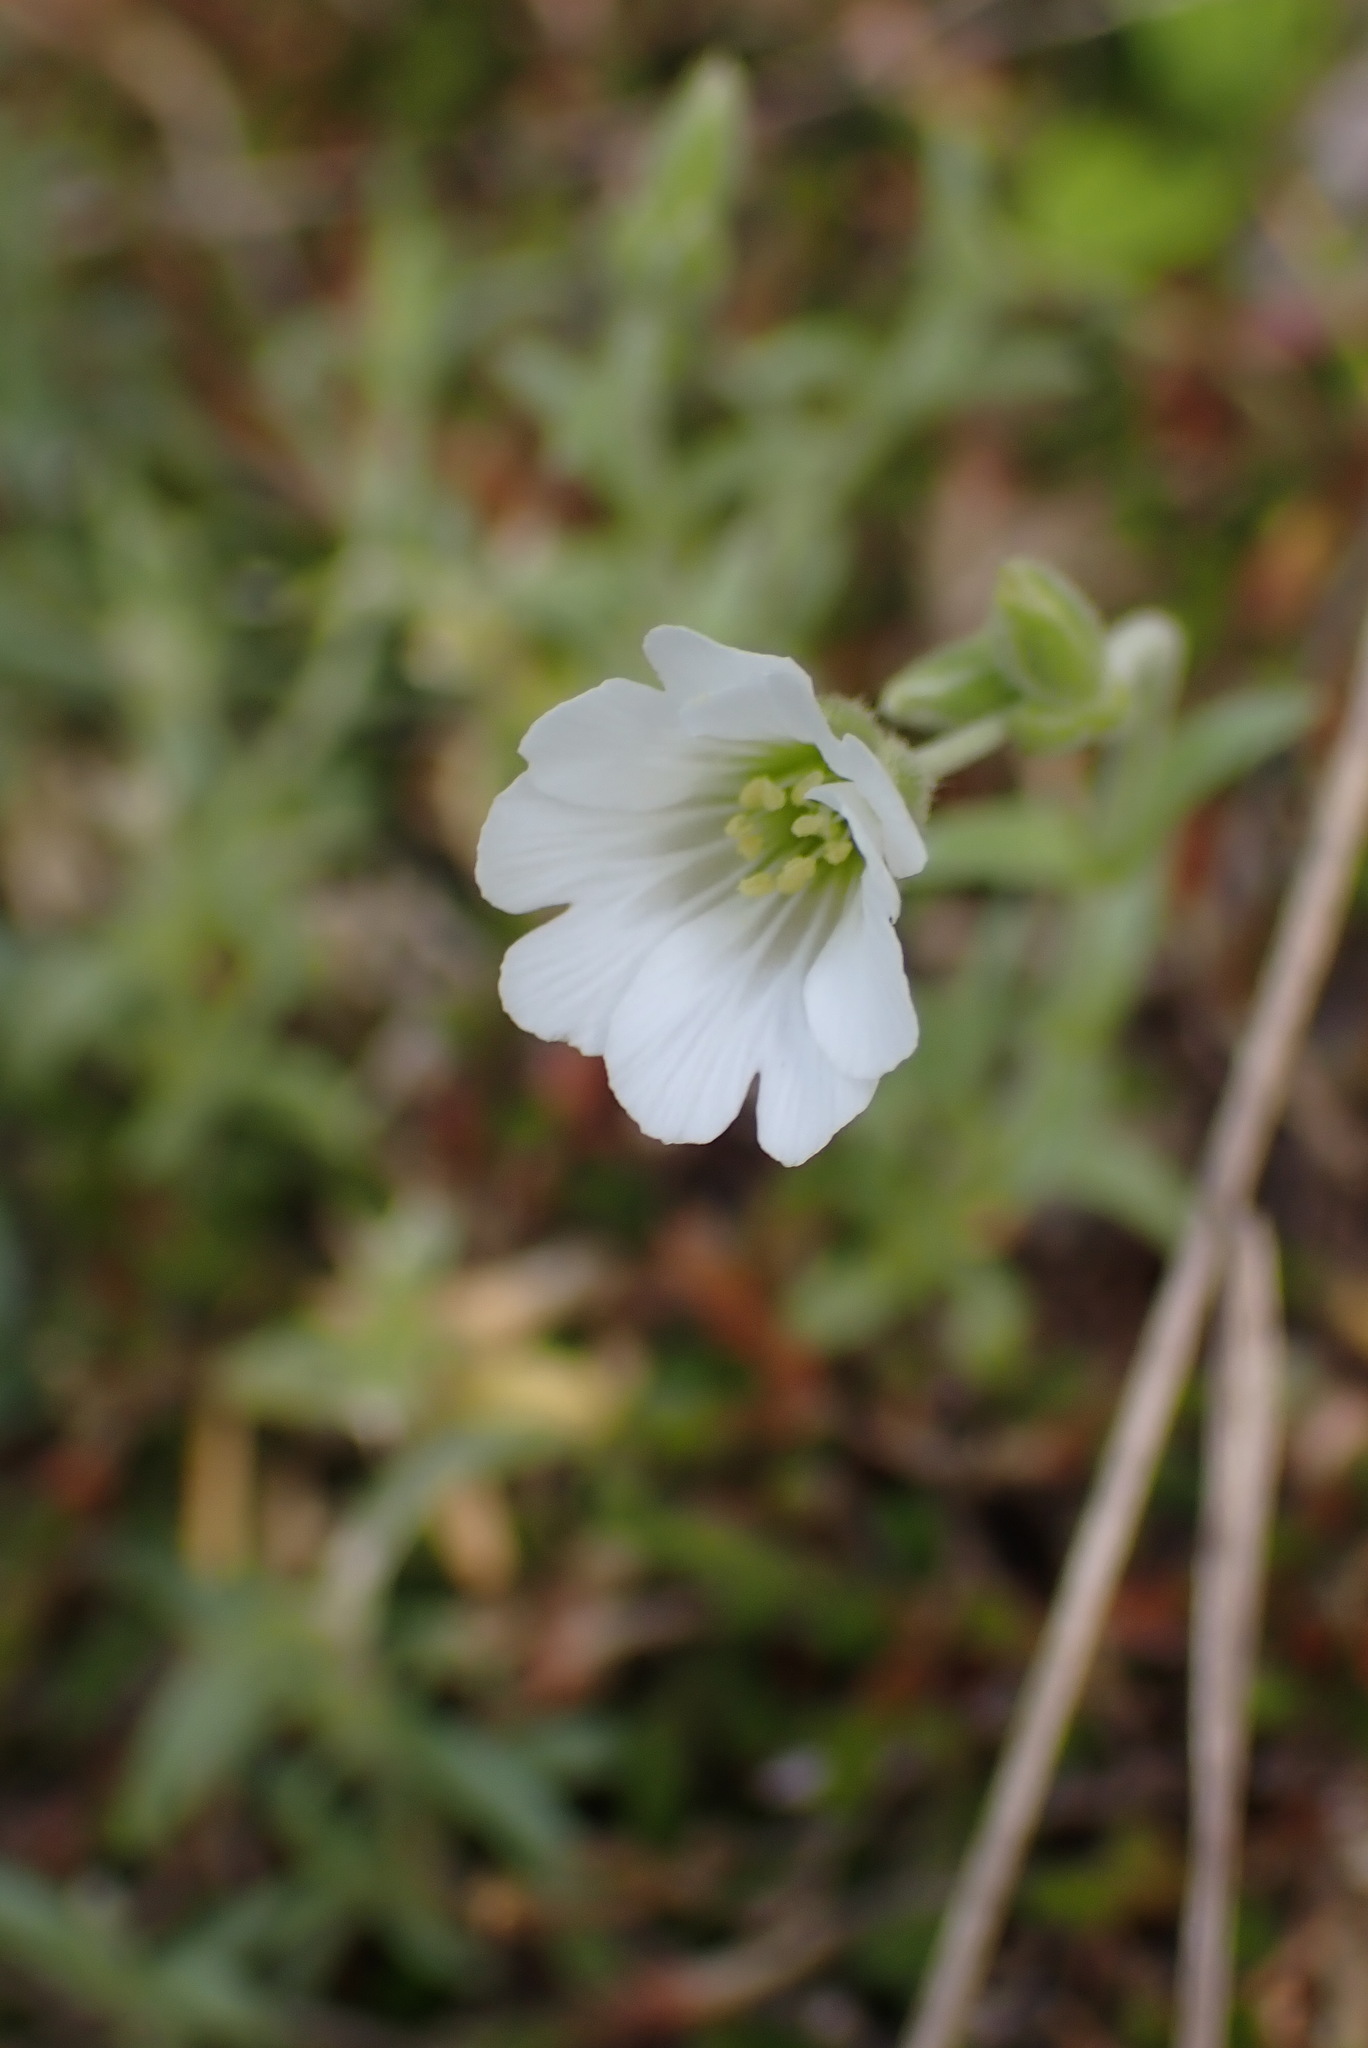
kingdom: Plantae
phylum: Tracheophyta
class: Magnoliopsida
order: Caryophyllales
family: Caryophyllaceae
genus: Cerastium
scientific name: Cerastium arvense
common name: Field mouse-ear
